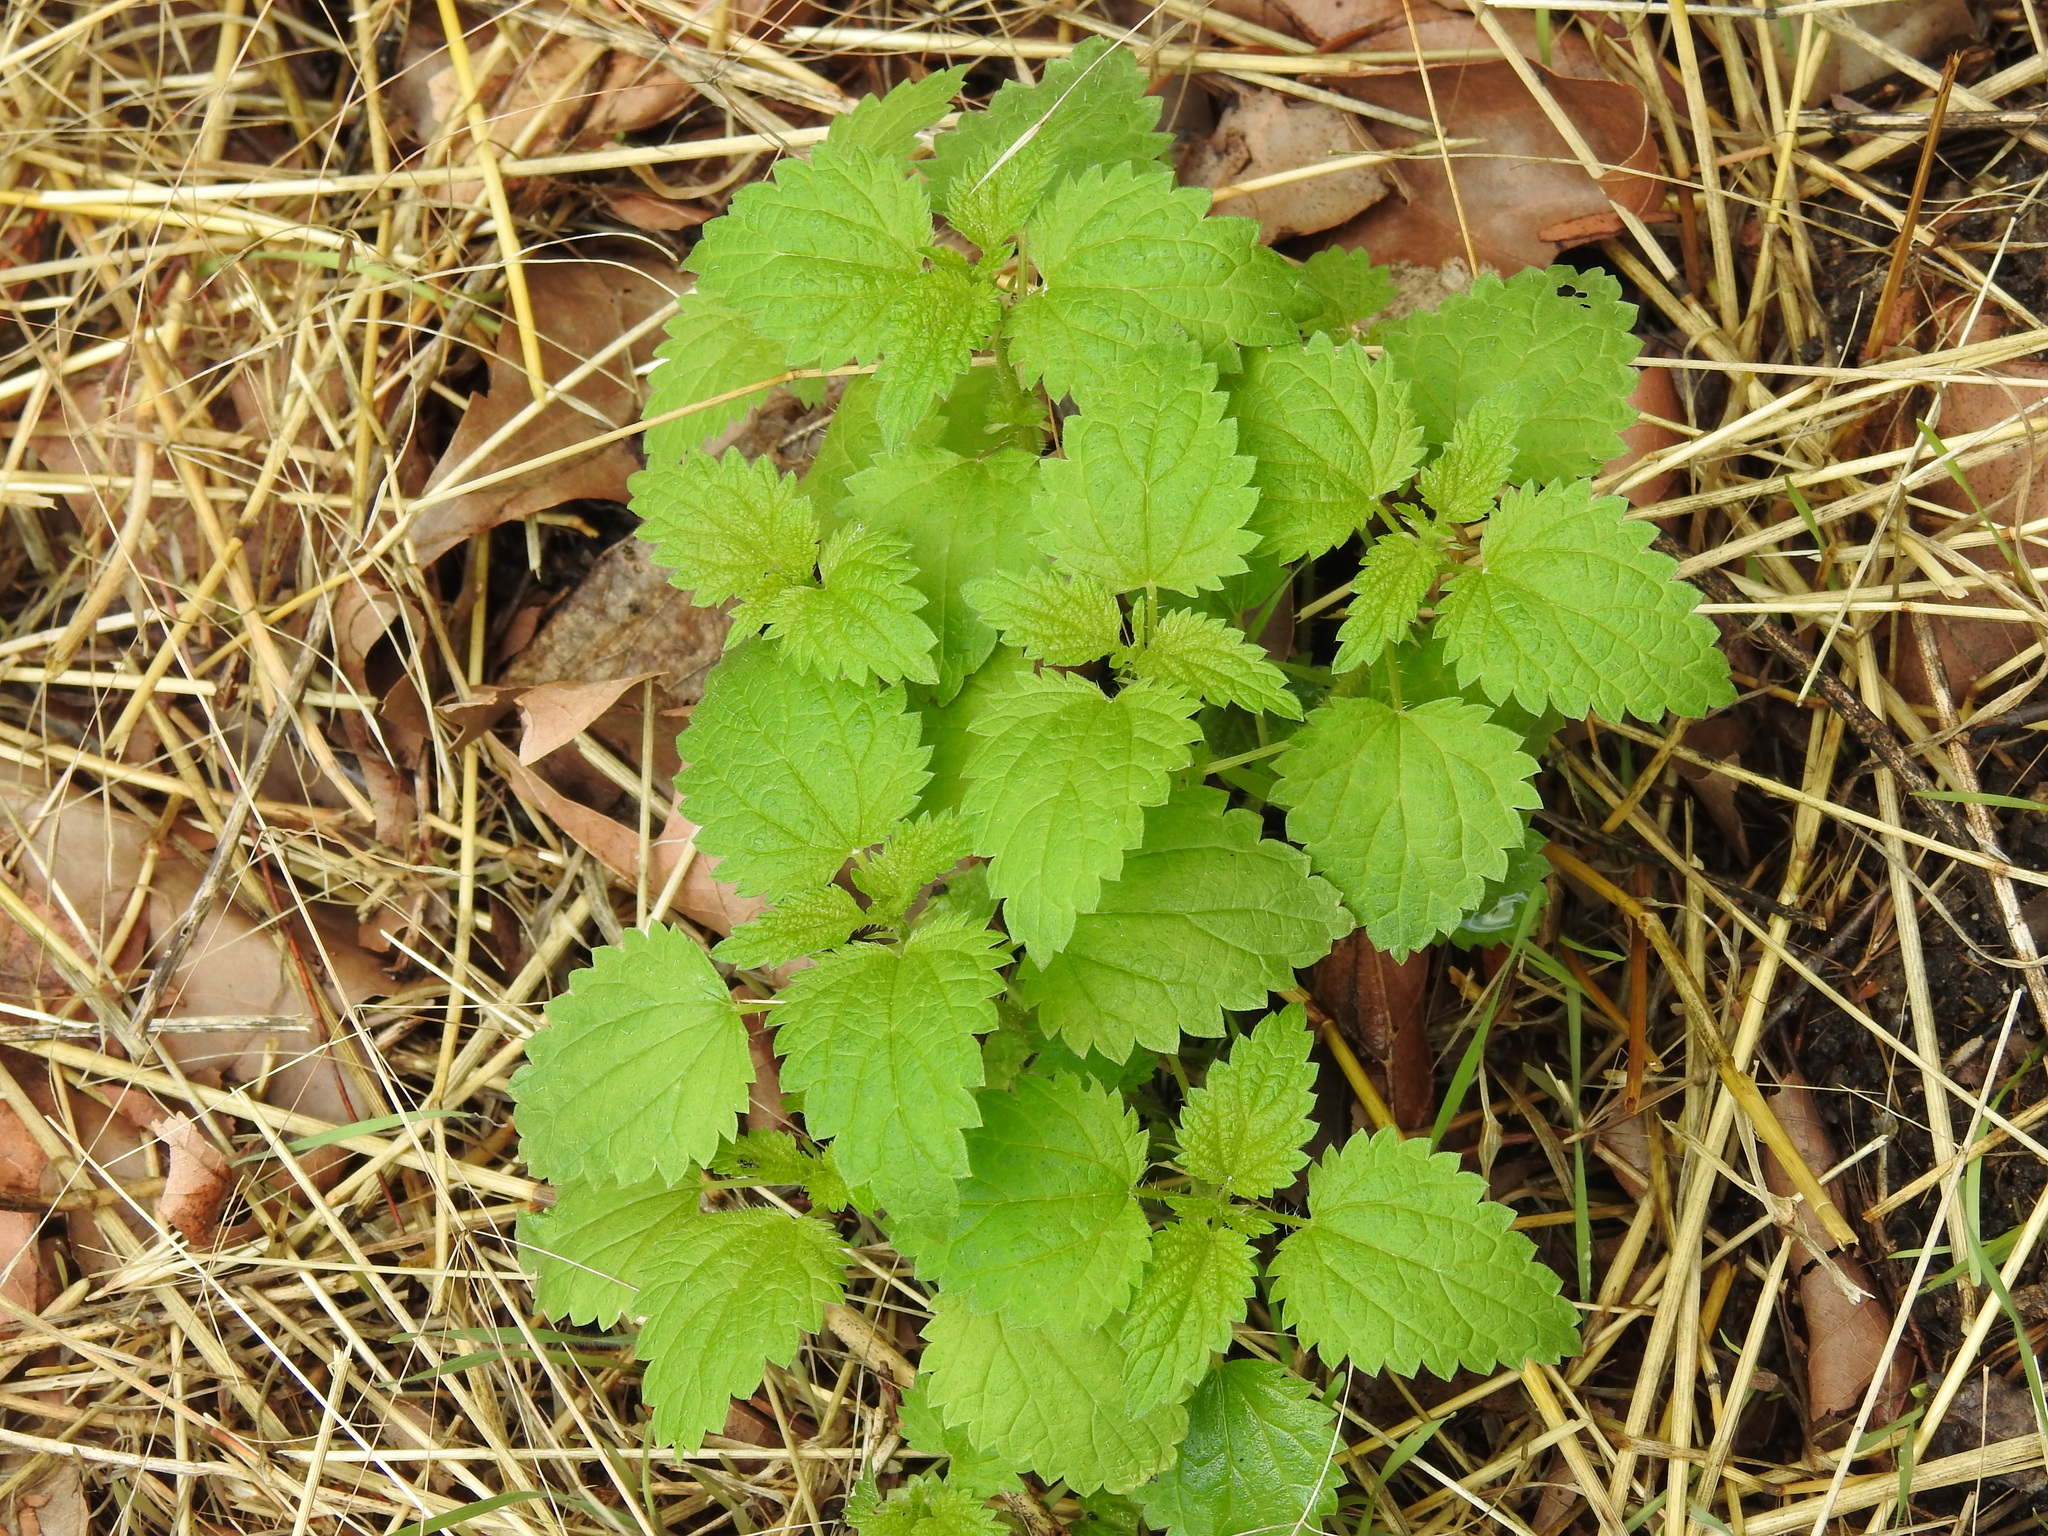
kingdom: Plantae
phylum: Tracheophyta
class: Magnoliopsida
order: Rosales
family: Urticaceae
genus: Urtica
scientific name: Urtica dioica
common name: Common nettle
